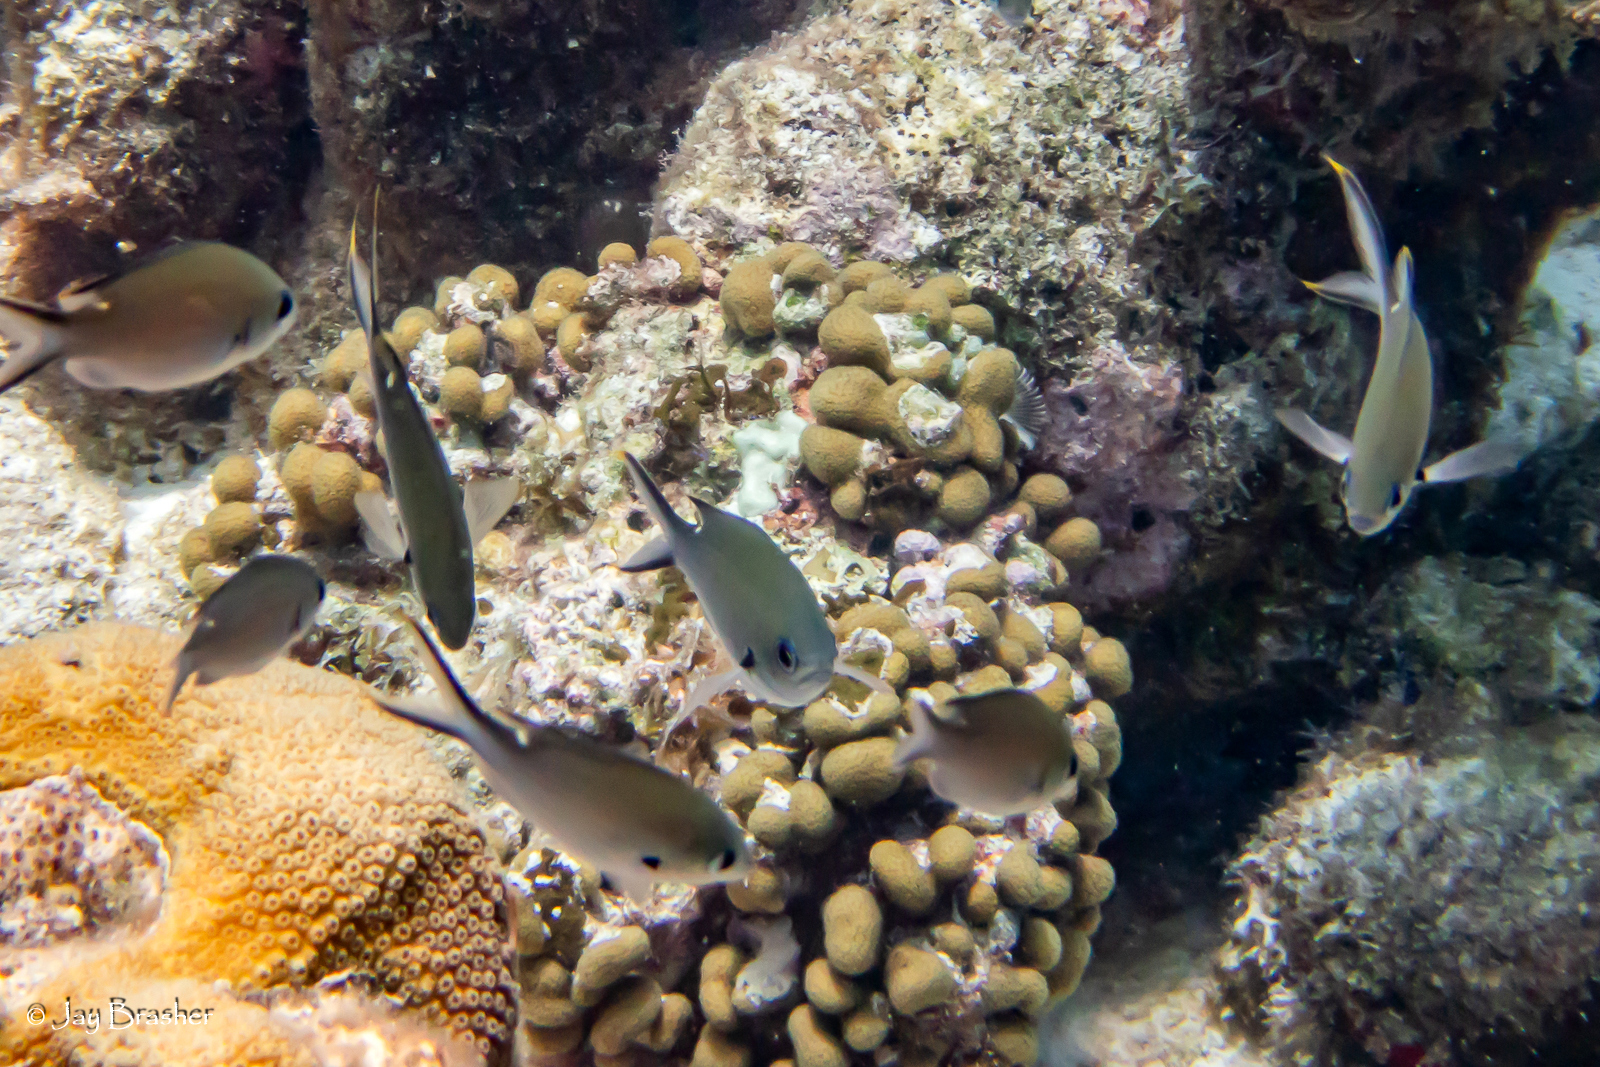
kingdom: Animalia
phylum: Cnidaria
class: Anthozoa
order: Scleractinia
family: Pocilloporidae
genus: Madracis
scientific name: Madracis decactis
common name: Ten-ray star coral
